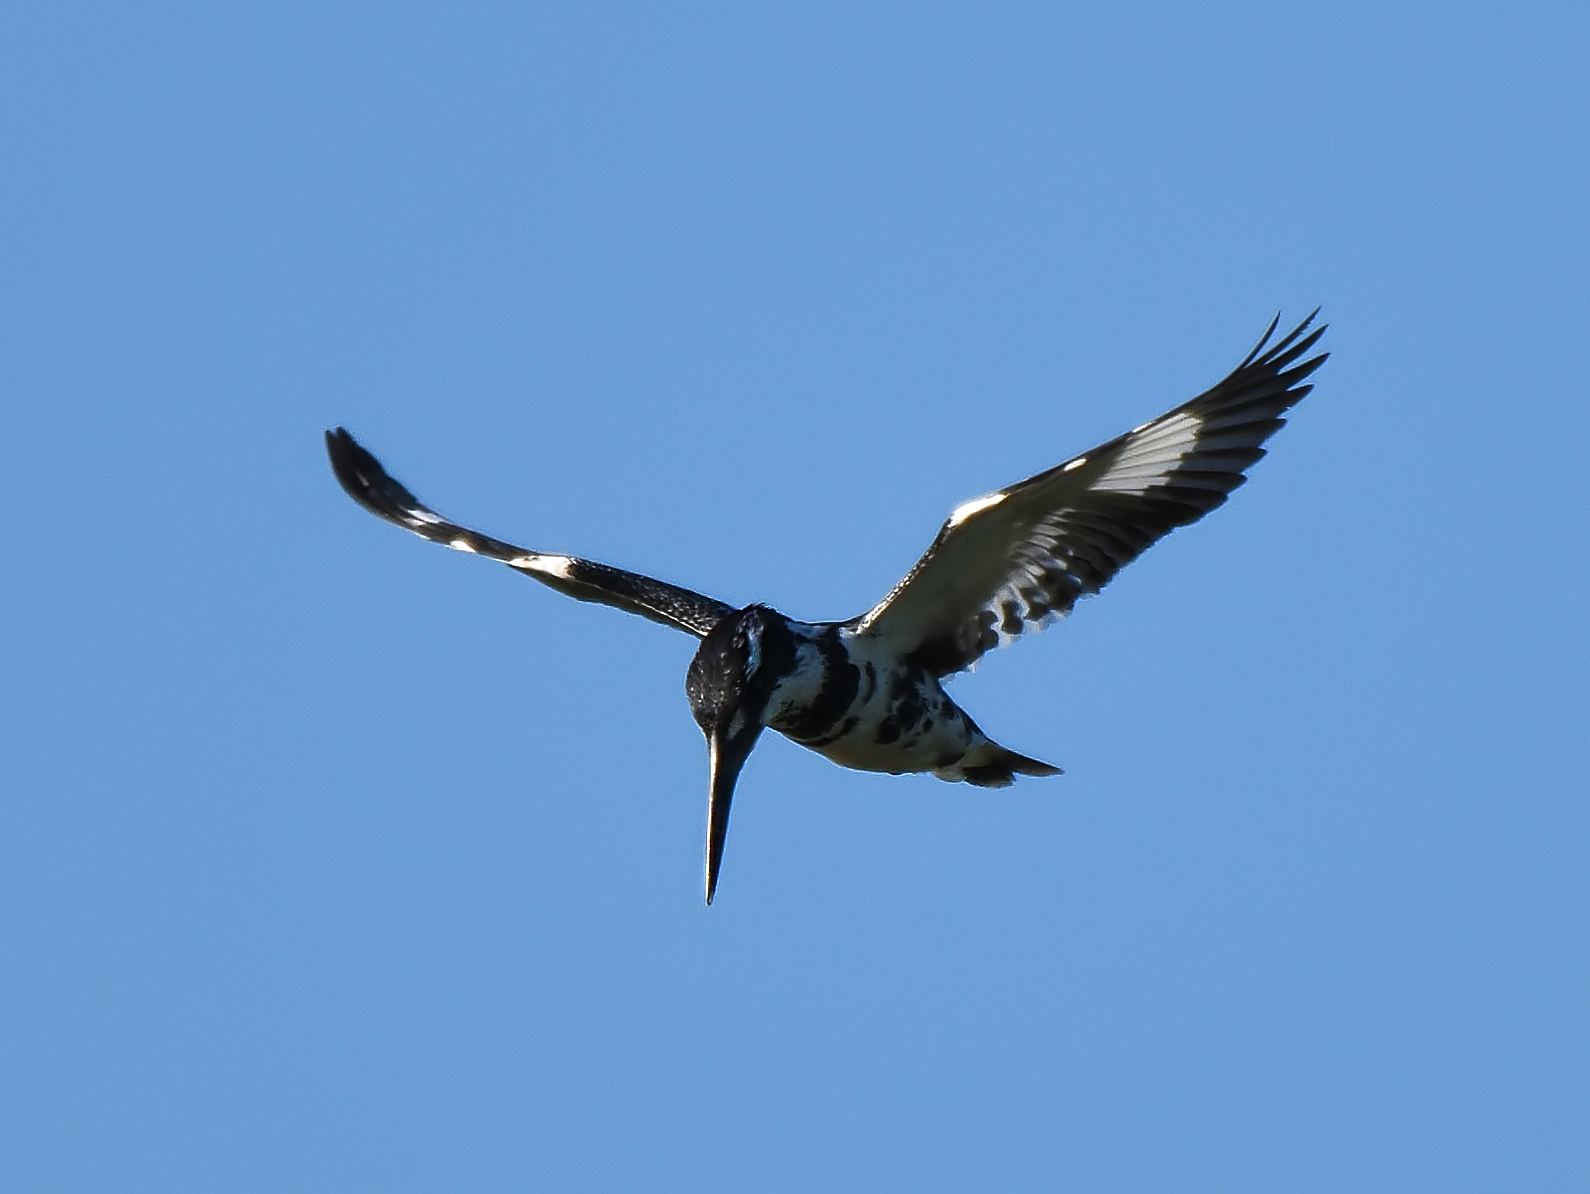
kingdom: Animalia
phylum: Chordata
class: Aves
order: Coraciiformes
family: Alcedinidae
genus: Ceryle
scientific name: Ceryle rudis
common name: Pied kingfisher
